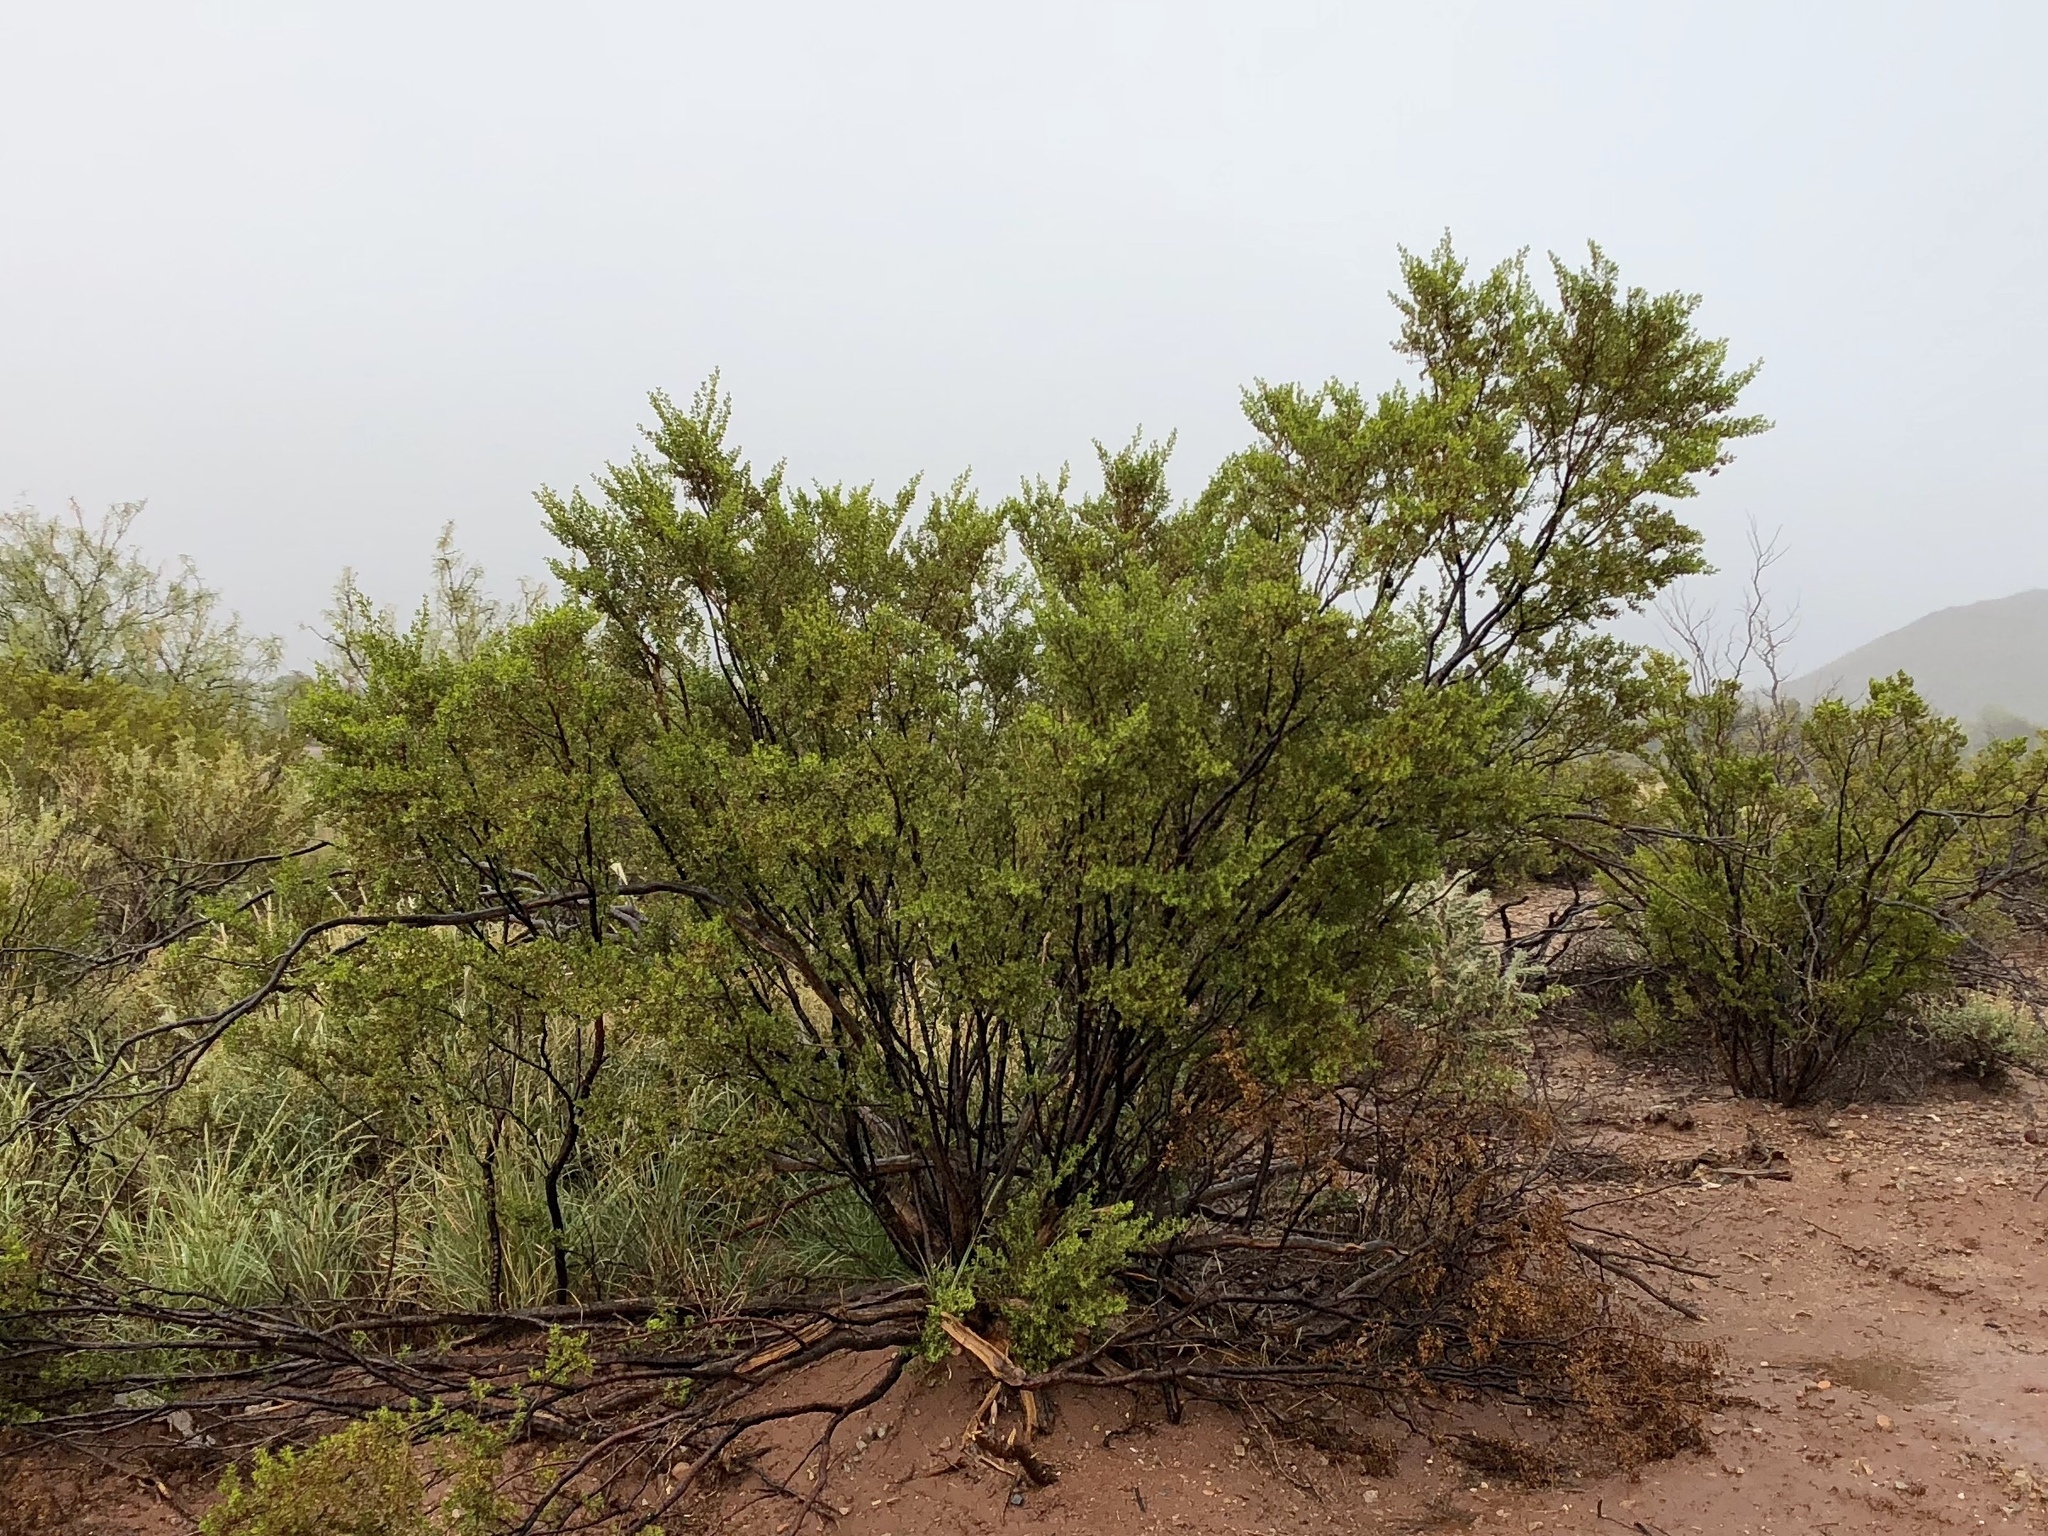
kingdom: Plantae
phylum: Tracheophyta
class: Magnoliopsida
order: Zygophyllales
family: Zygophyllaceae
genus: Larrea
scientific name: Larrea tridentata
